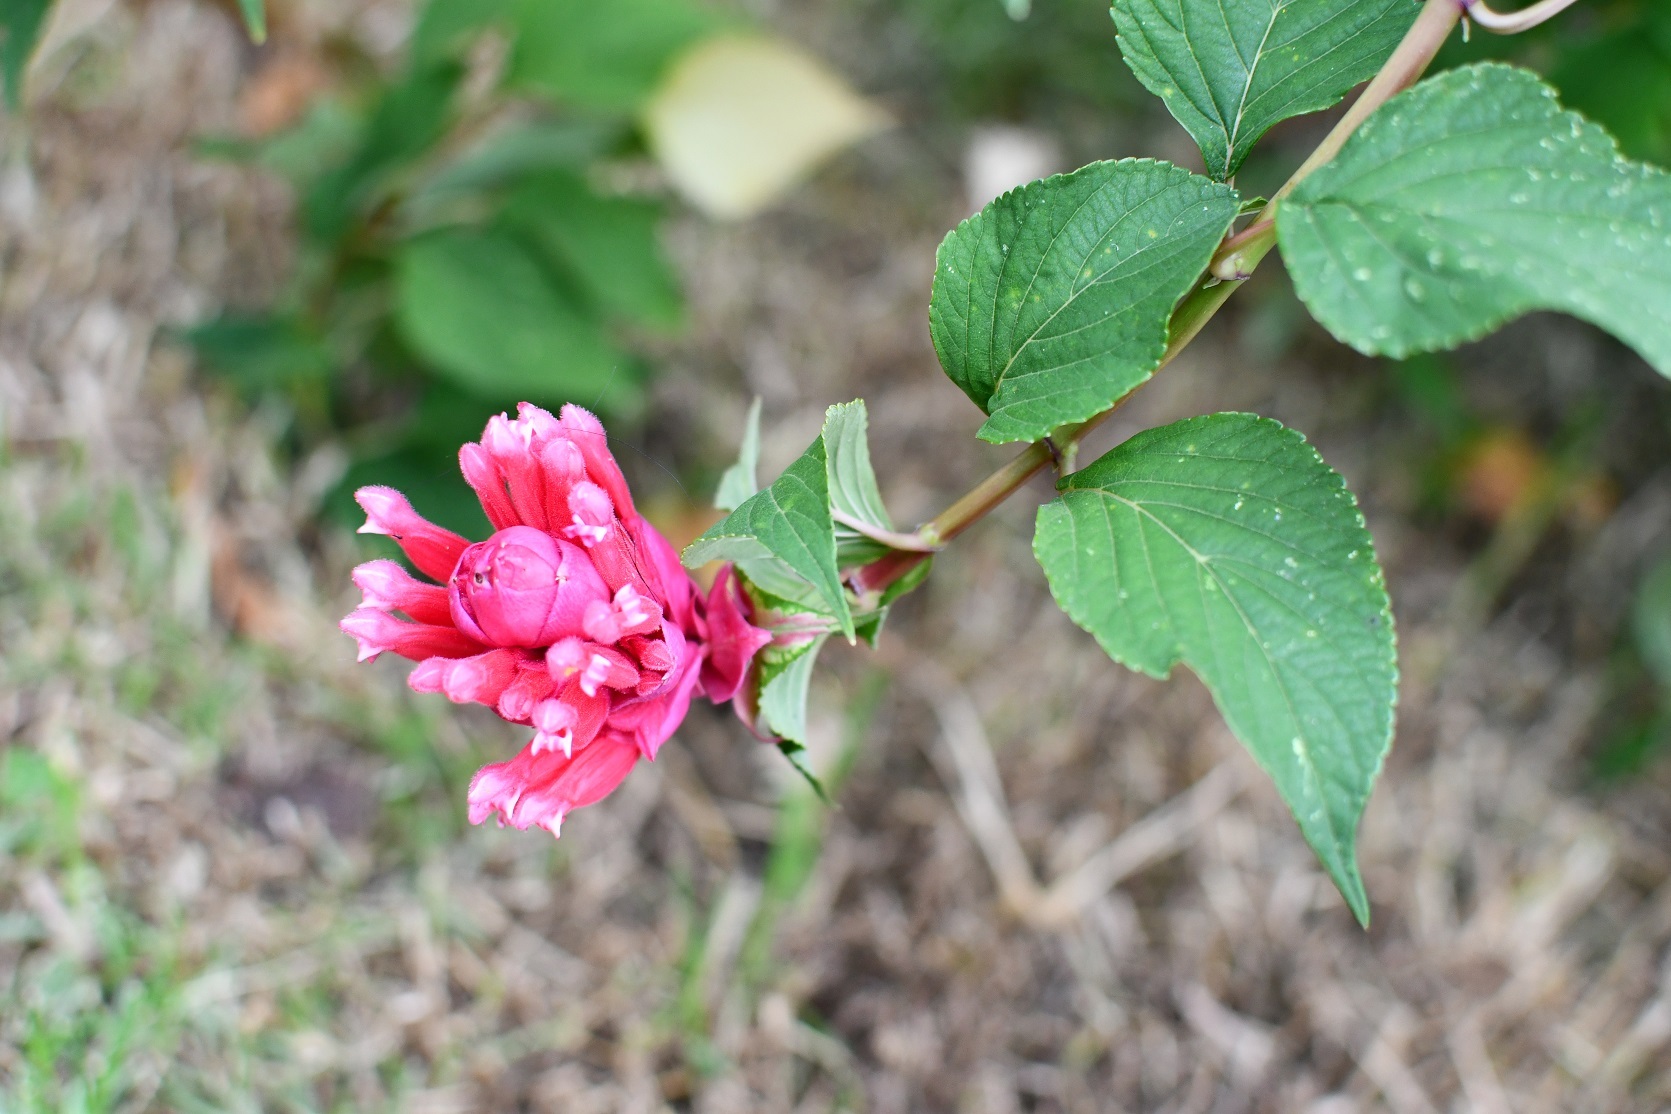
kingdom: Plantae
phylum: Tracheophyta
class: Magnoliopsida
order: Lamiales
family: Lamiaceae
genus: Salvia
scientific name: Salvia wagneriana
